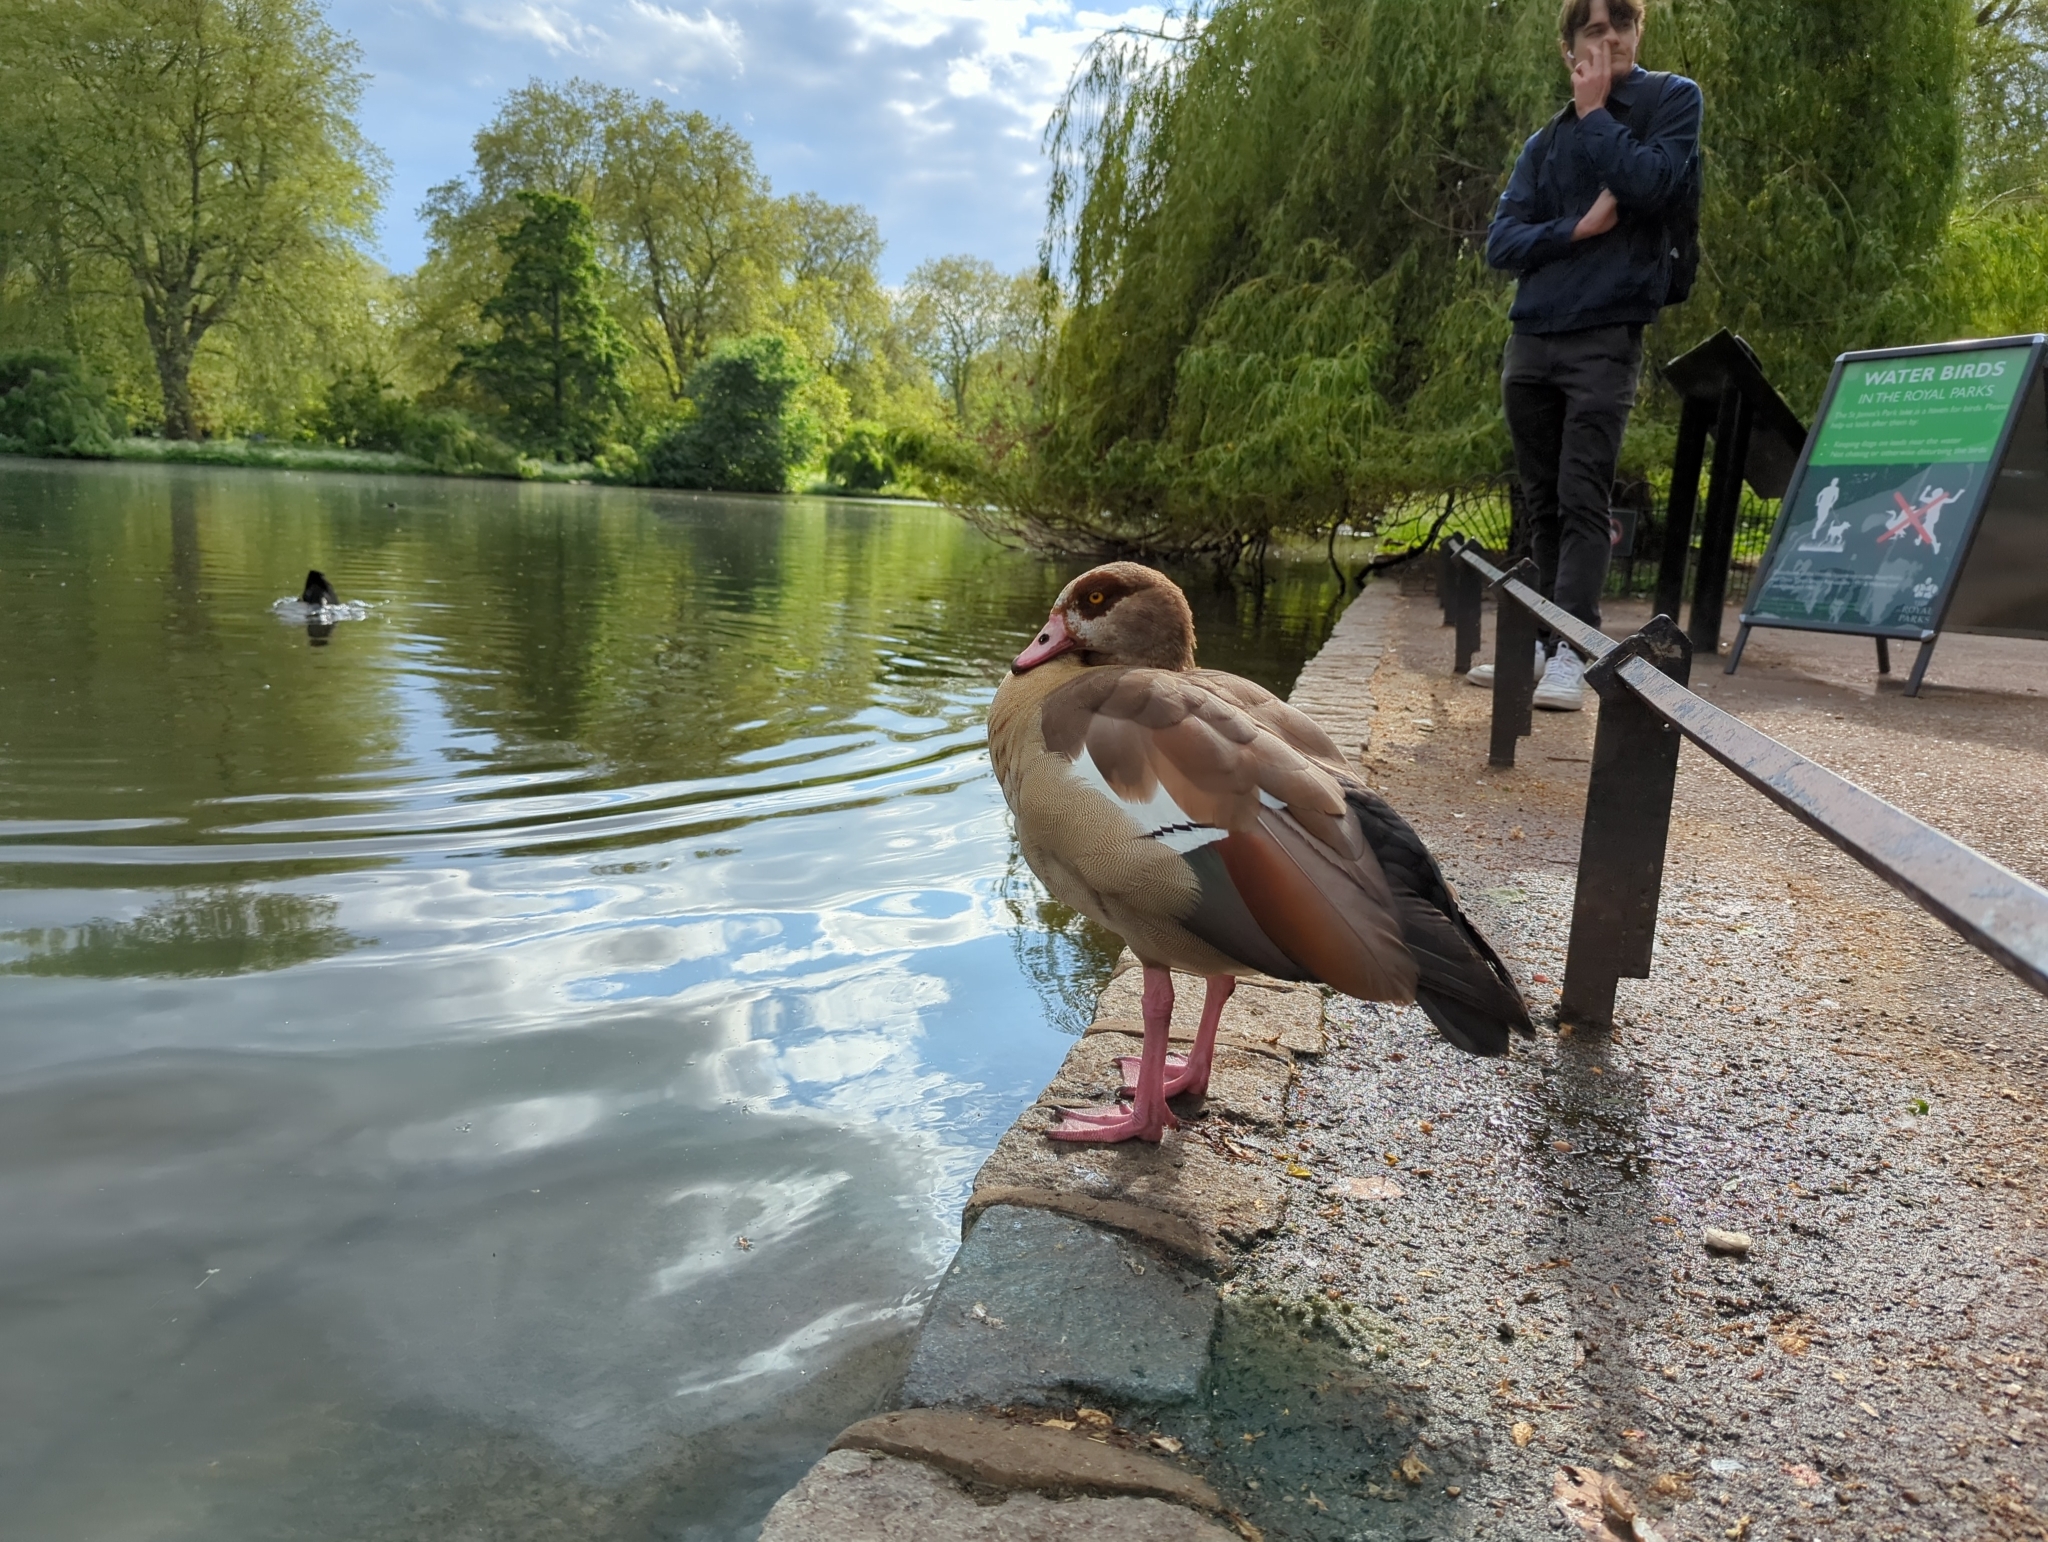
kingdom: Animalia
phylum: Chordata
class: Aves
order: Anseriformes
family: Anatidae
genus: Alopochen
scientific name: Alopochen aegyptiaca
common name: Egyptian goose
